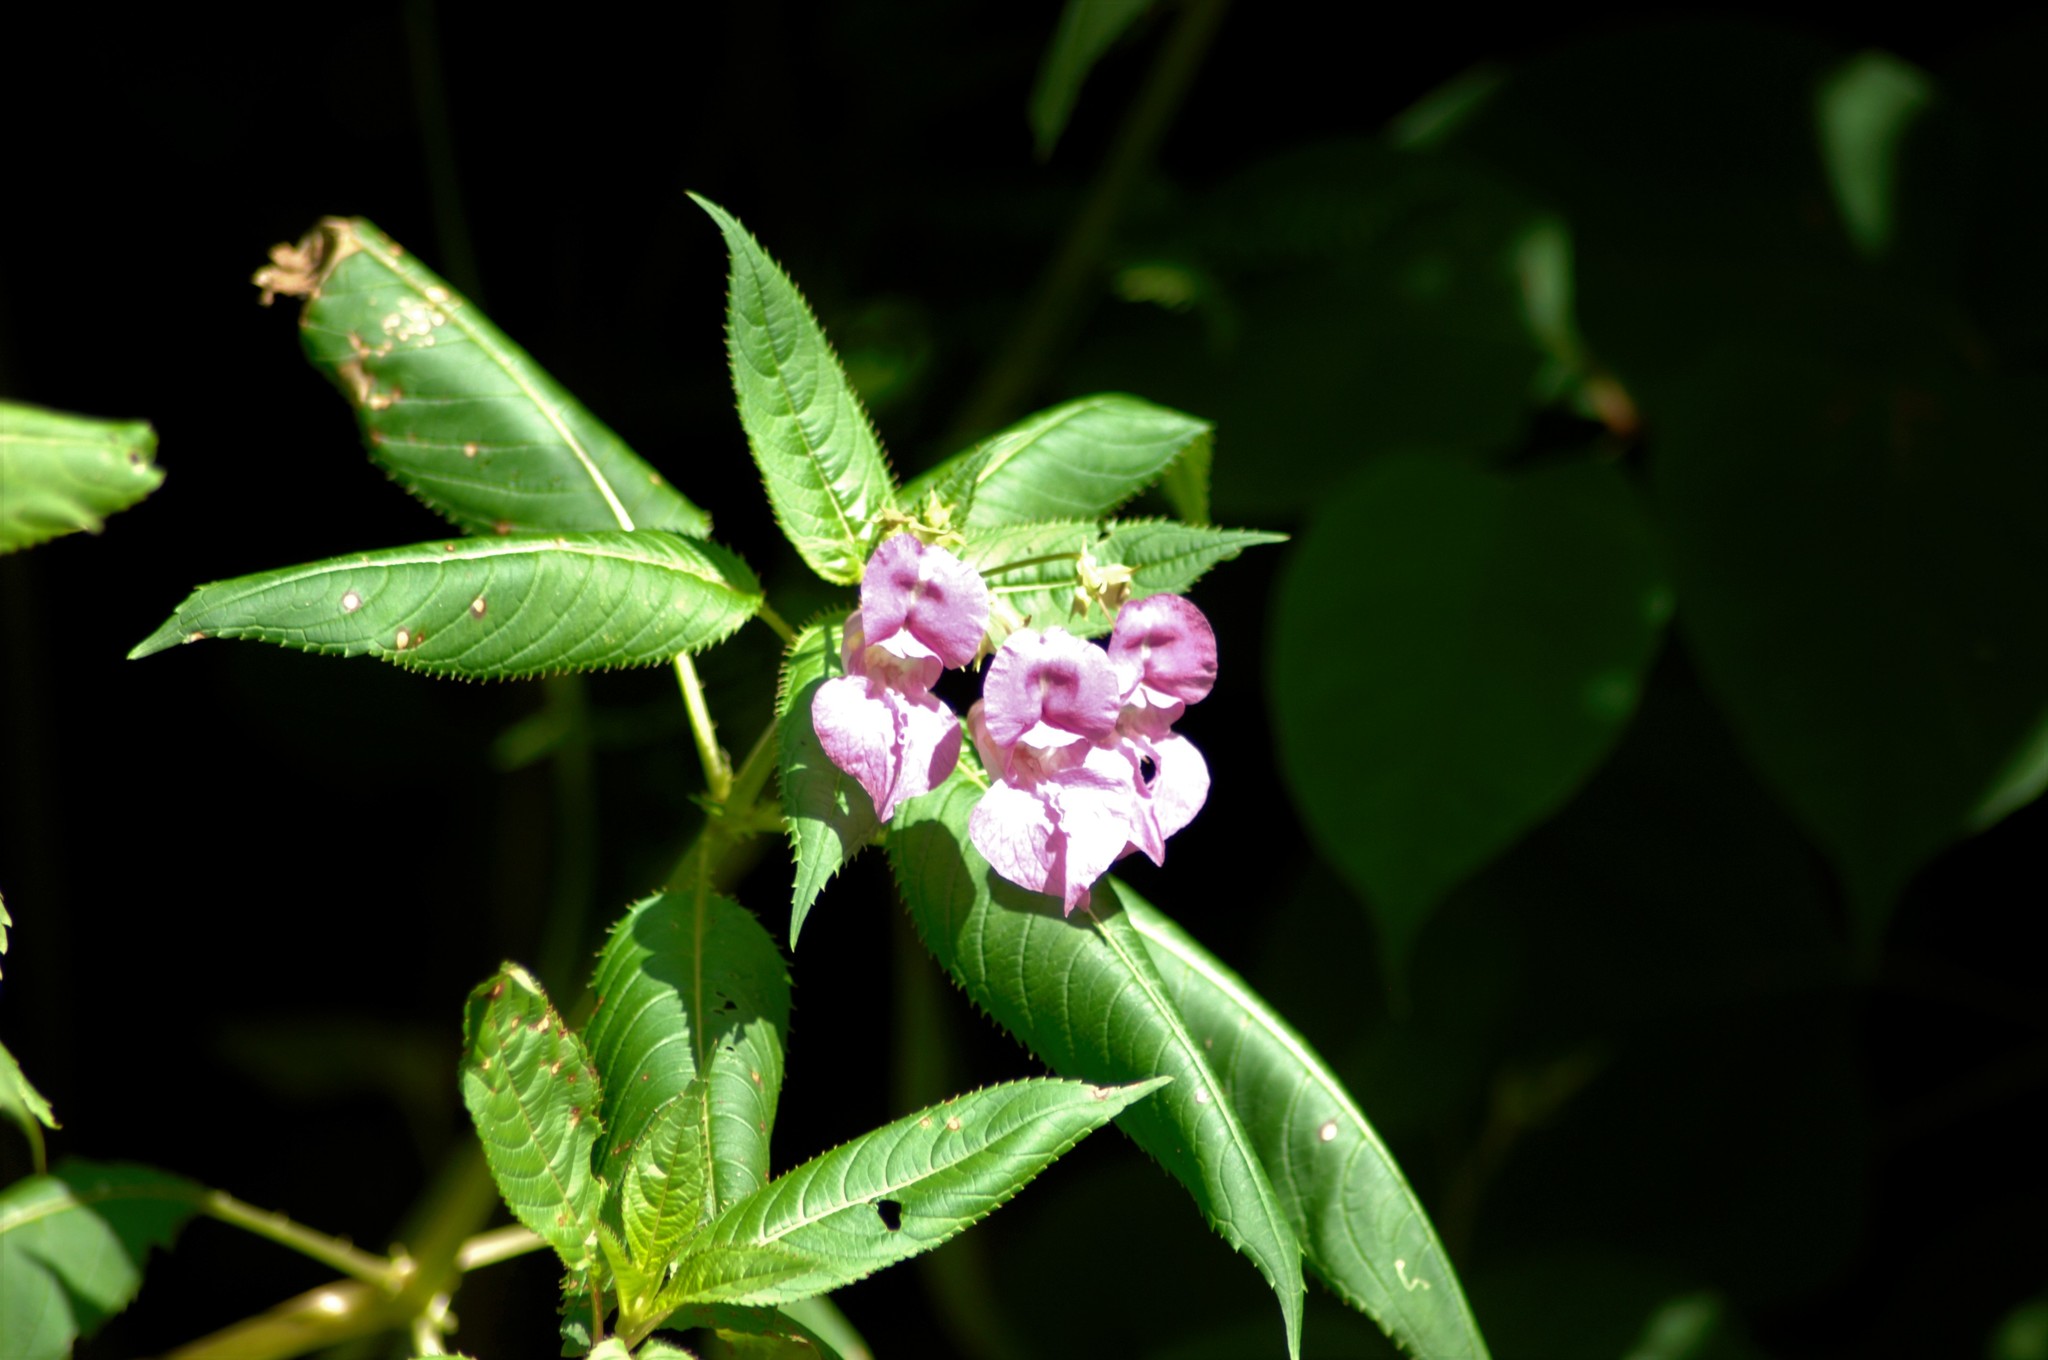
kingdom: Plantae
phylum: Tracheophyta
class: Magnoliopsida
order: Ericales
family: Balsaminaceae
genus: Impatiens
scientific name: Impatiens glandulifera
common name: Himalayan balsam
